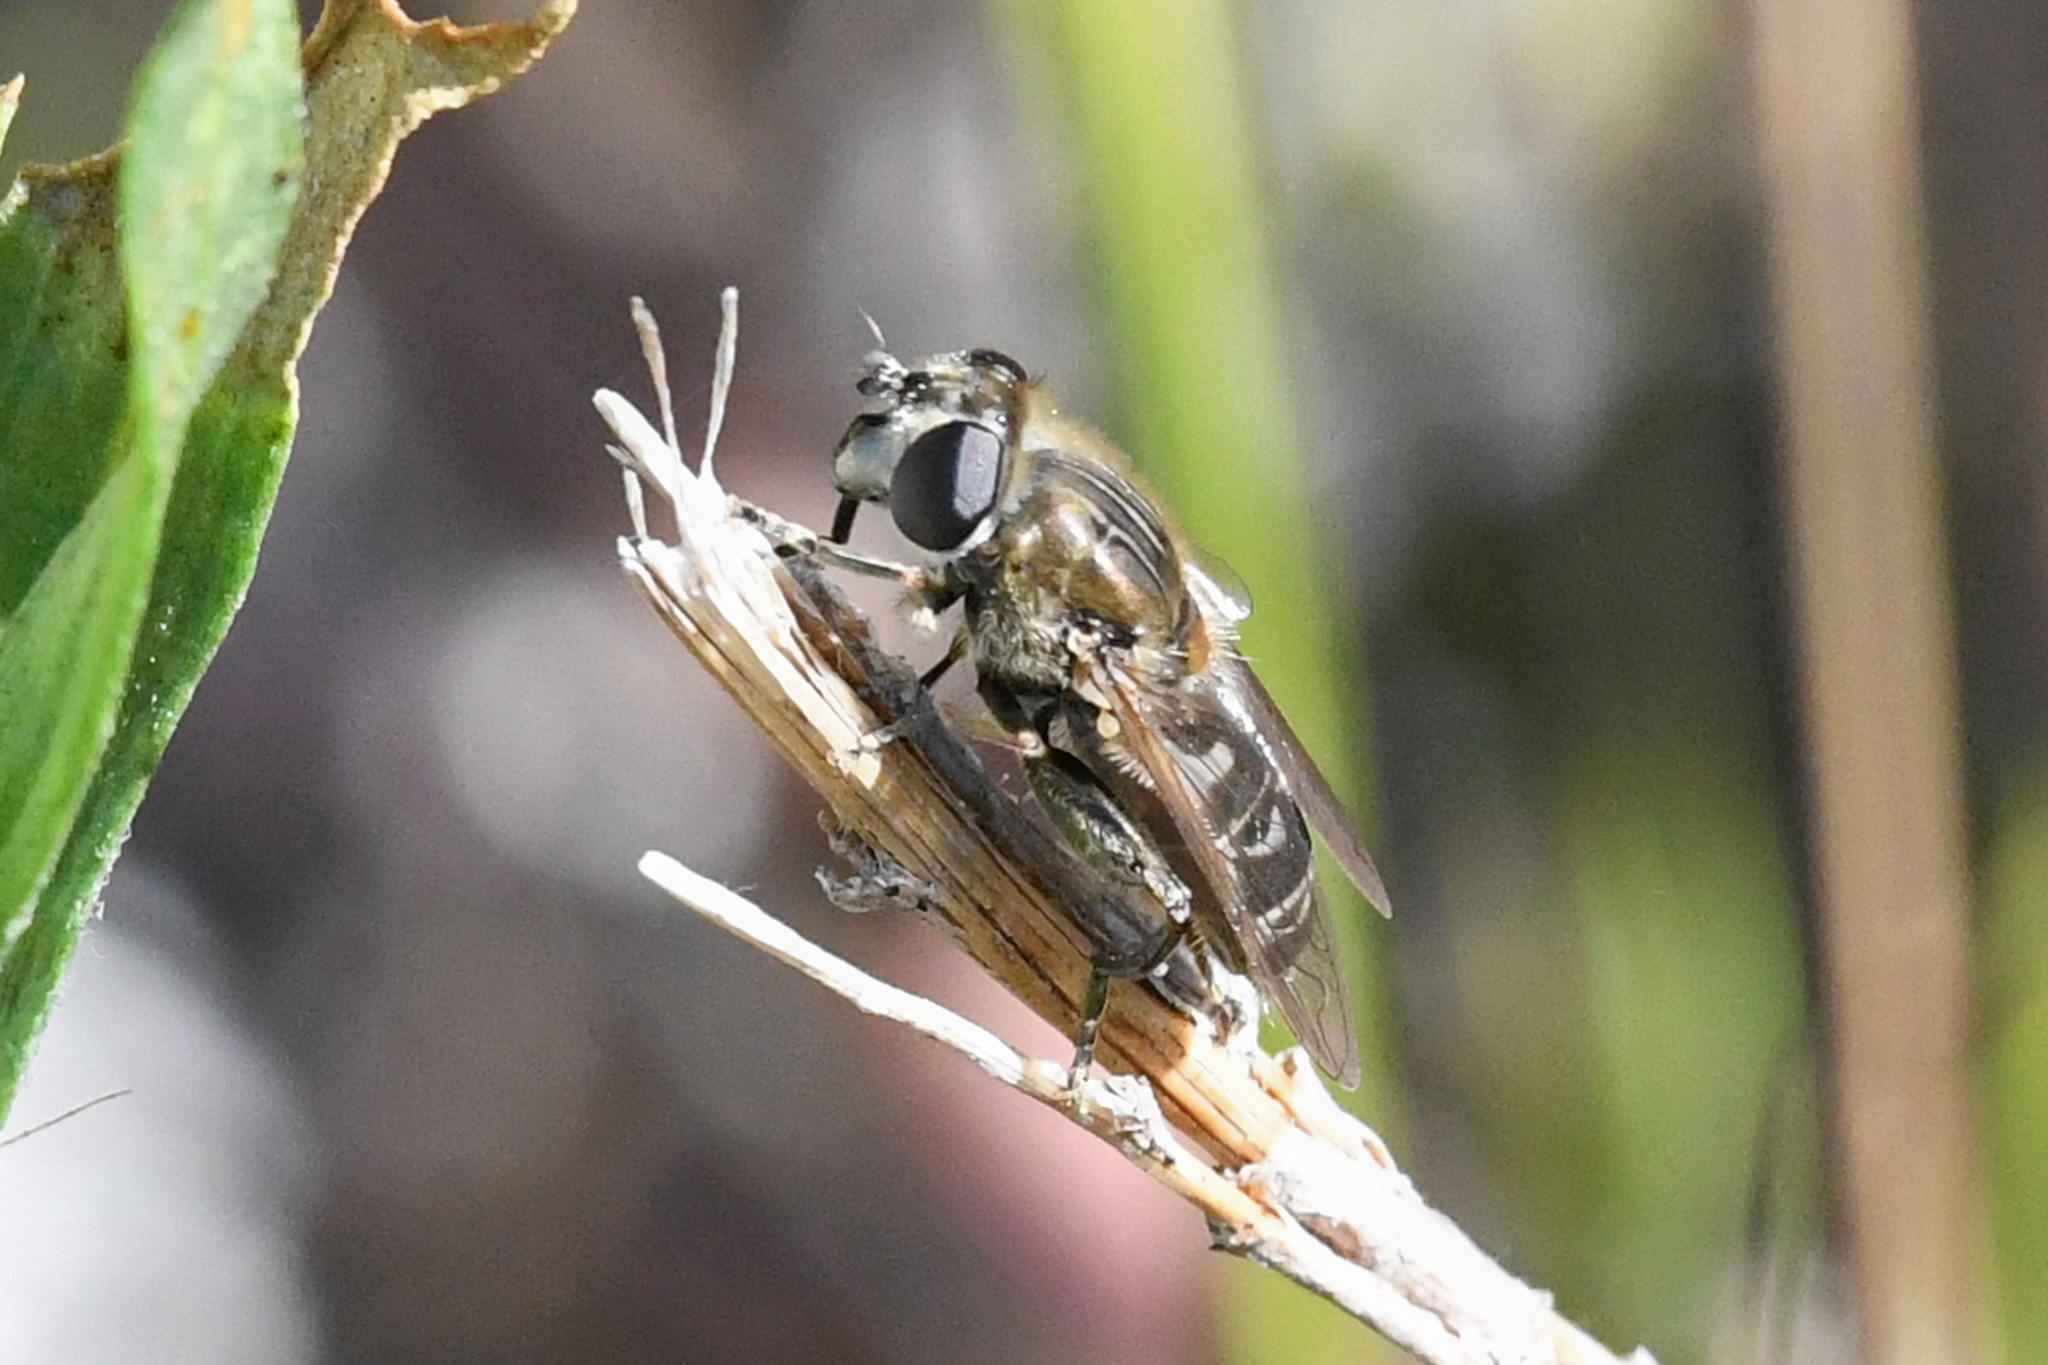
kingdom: Animalia
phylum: Arthropoda
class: Insecta
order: Diptera
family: Syrphidae
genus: Asemosyrphus
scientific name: Asemosyrphus polygrammus
